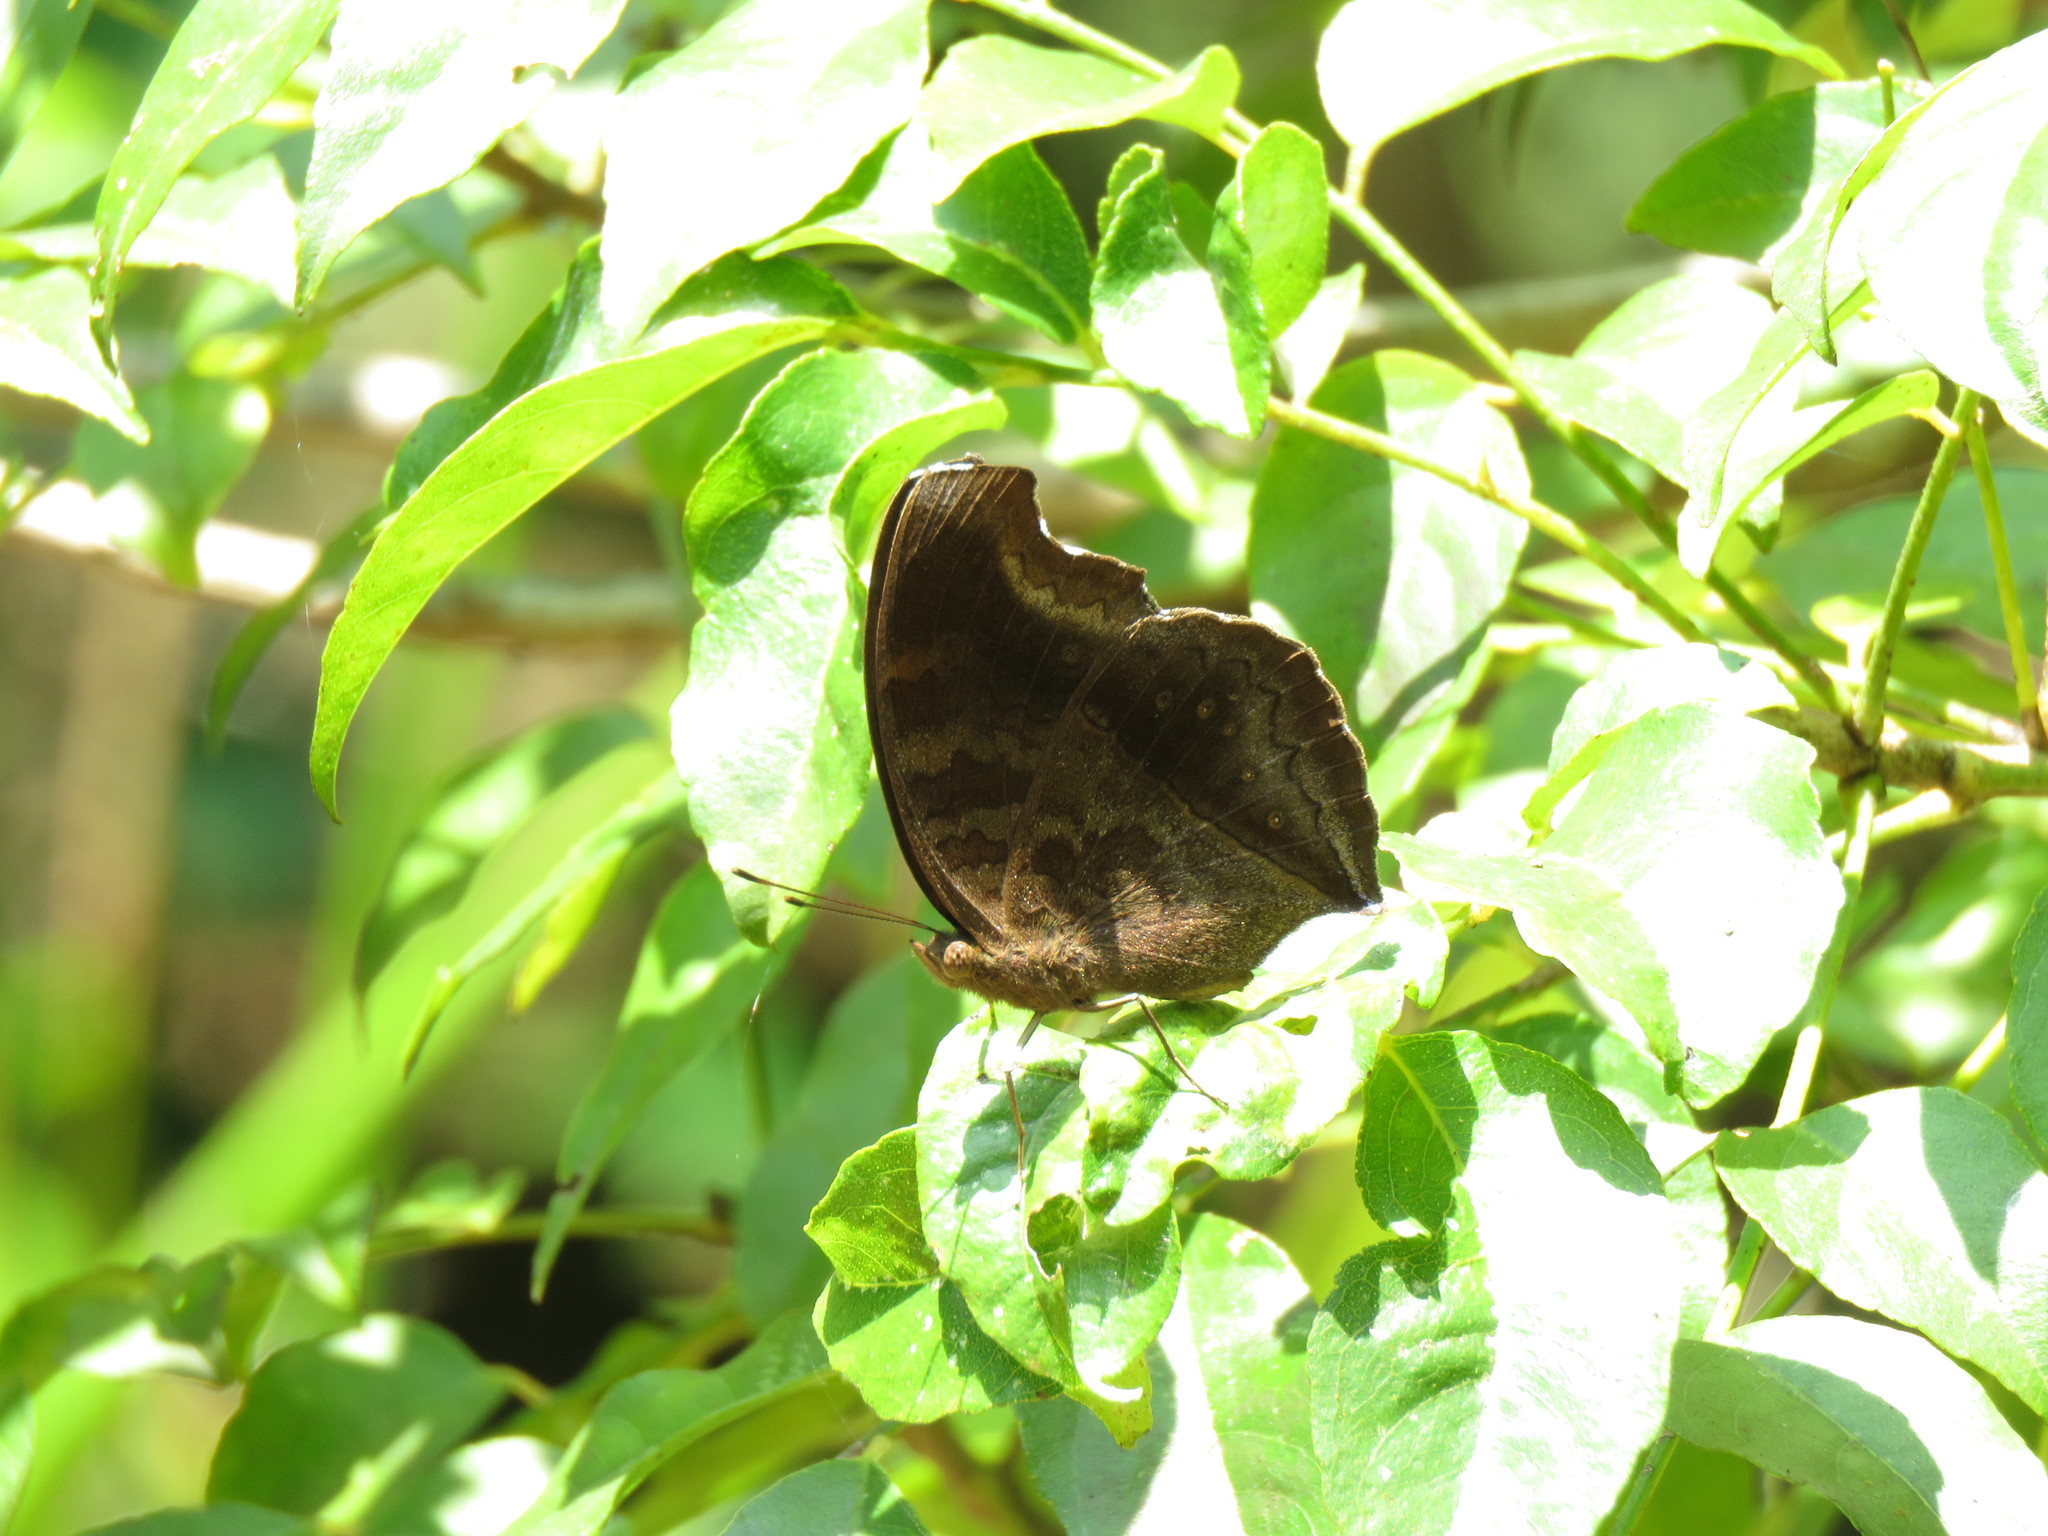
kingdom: Animalia
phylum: Arthropoda
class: Insecta
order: Lepidoptera
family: Nymphalidae
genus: Junonia
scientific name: Junonia iphita
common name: Chocolate pansy
